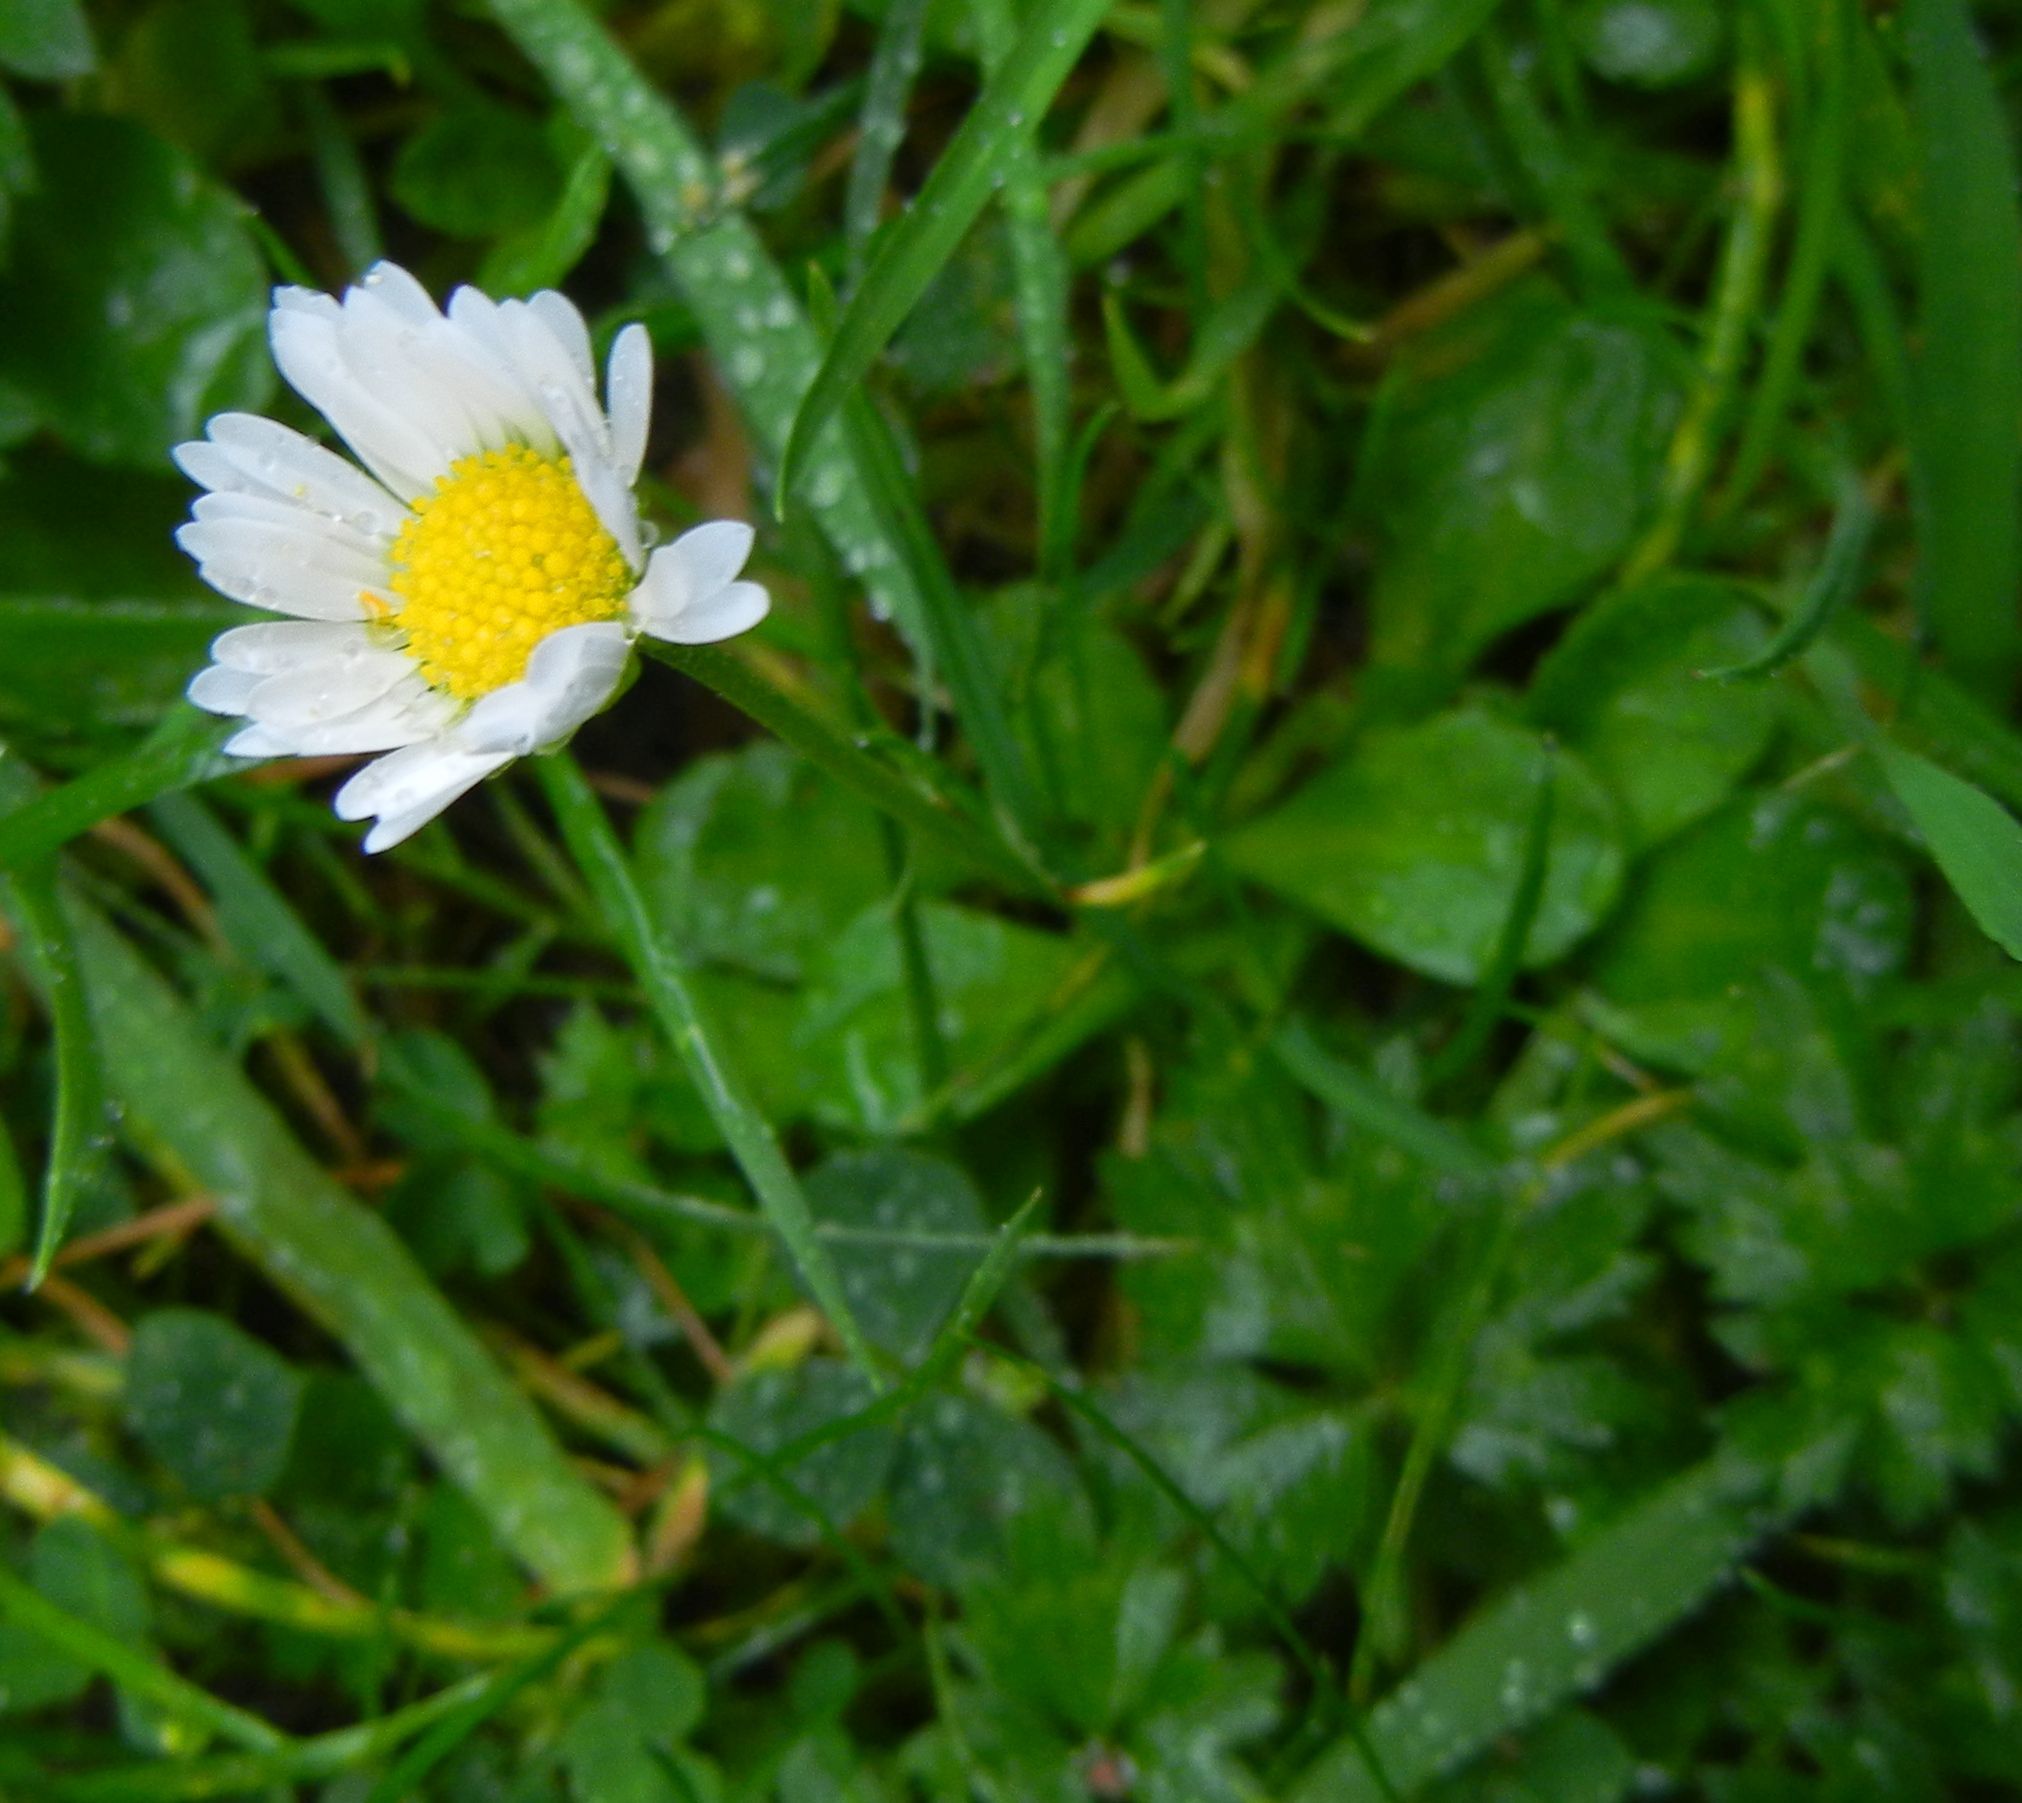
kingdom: Plantae
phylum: Tracheophyta
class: Magnoliopsida
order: Asterales
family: Asteraceae
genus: Bellis
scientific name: Bellis perennis
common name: Lawndaisy
